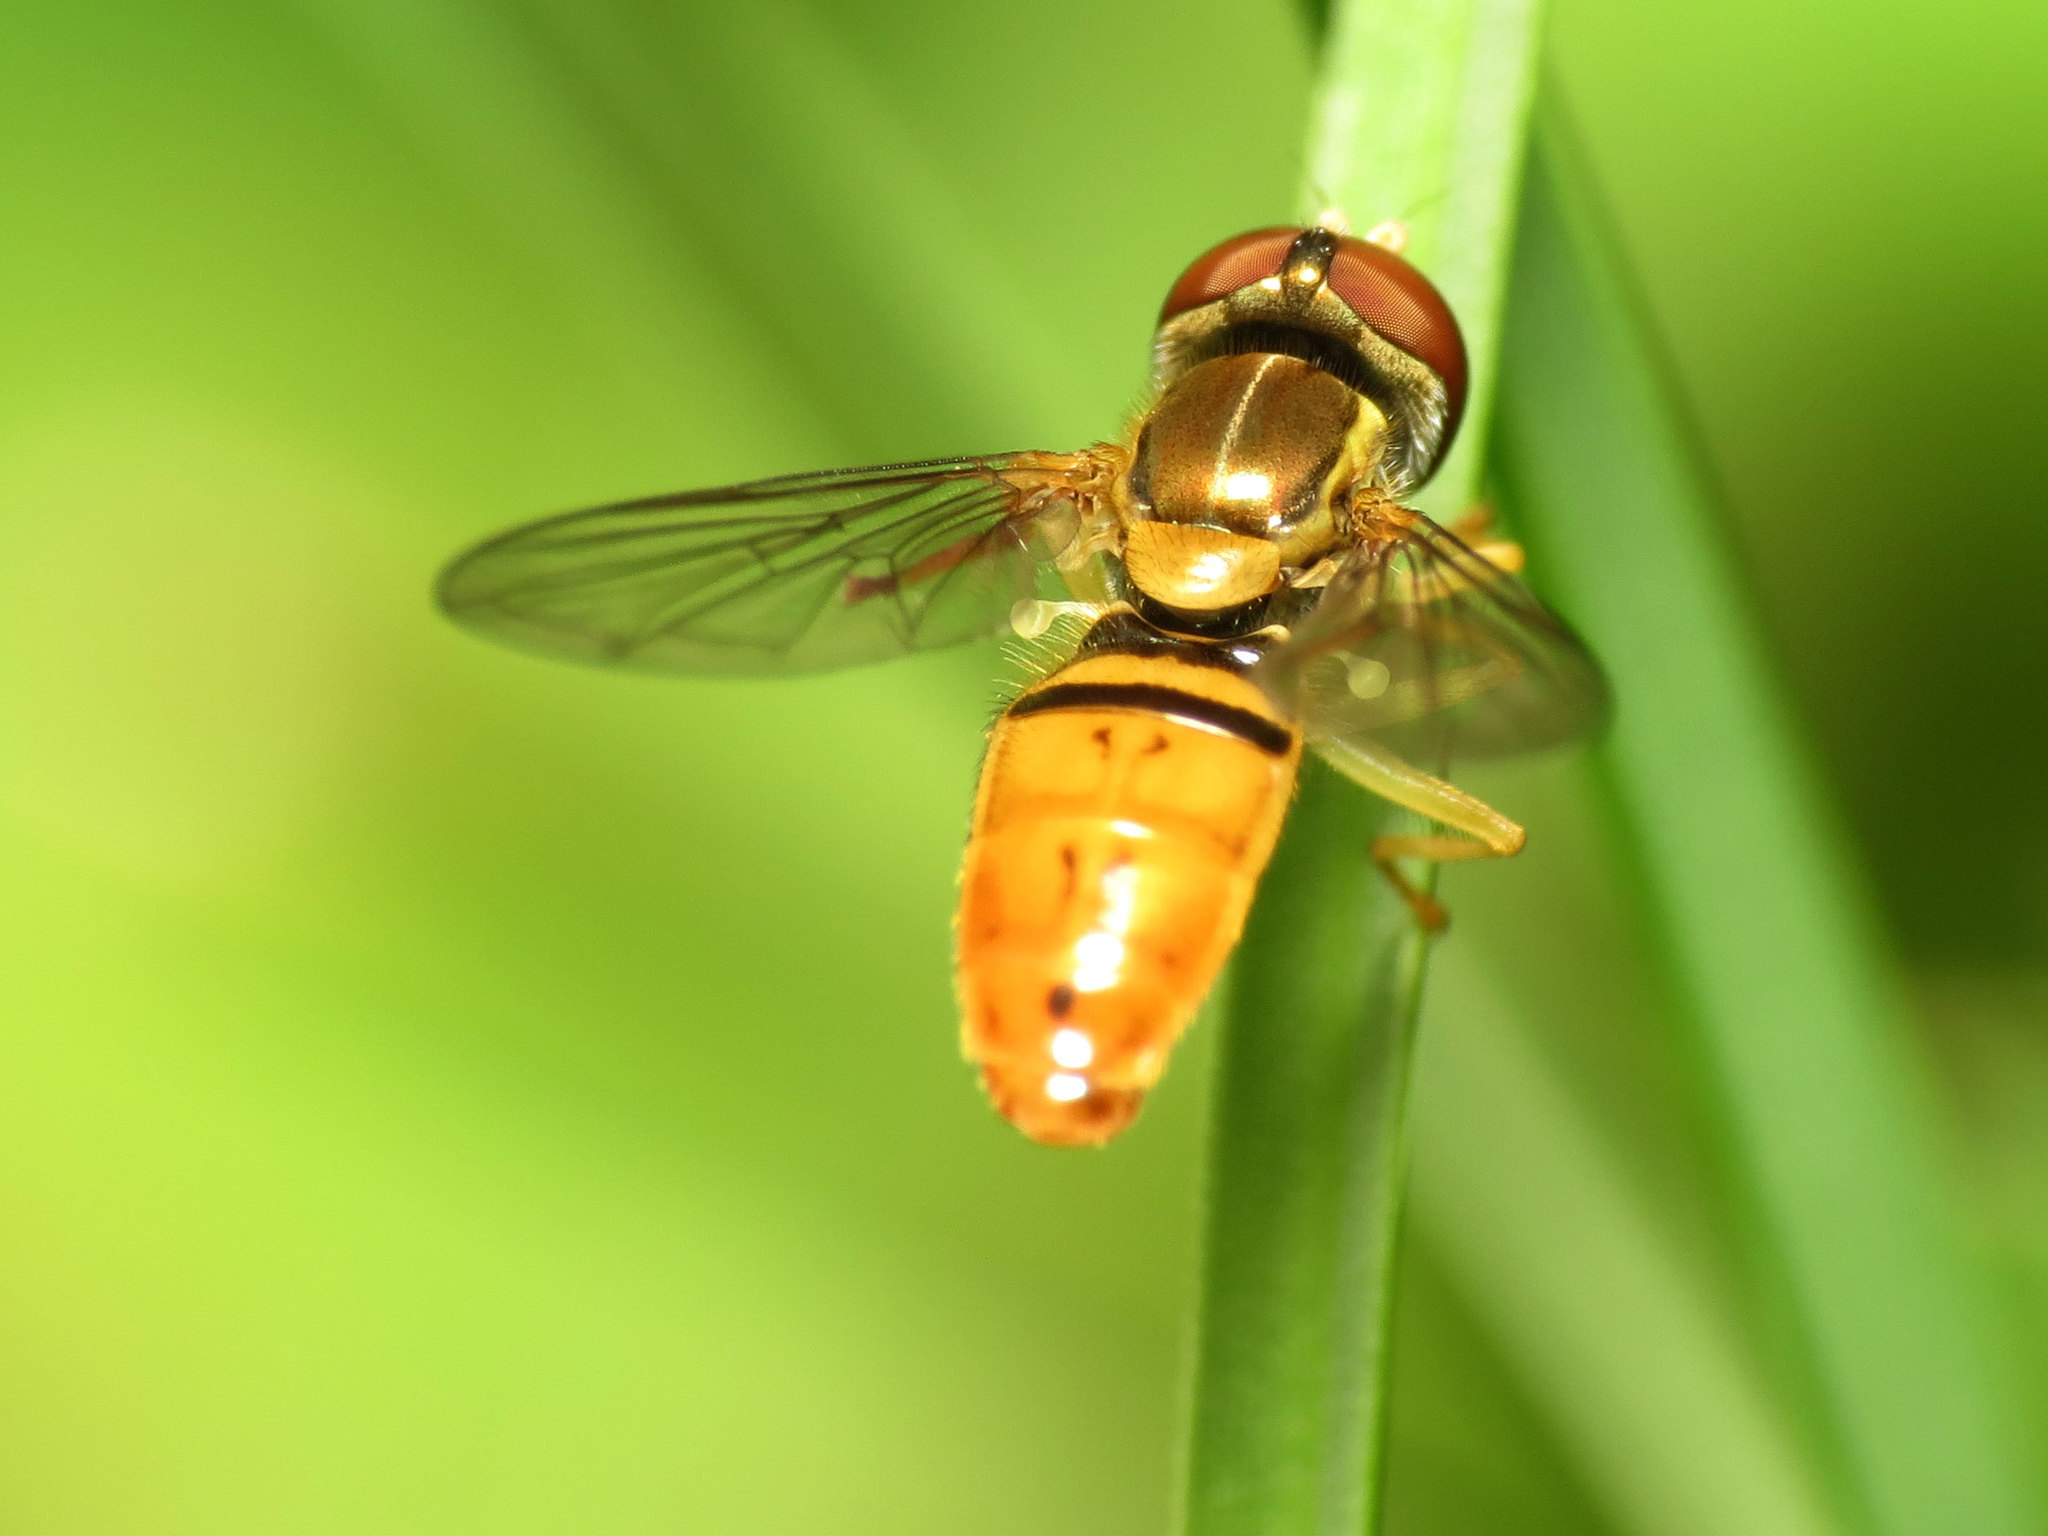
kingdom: Animalia
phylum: Arthropoda
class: Insecta
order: Diptera
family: Syrphidae
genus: Toxomerus
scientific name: Toxomerus marginatus
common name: Syrphid fly
